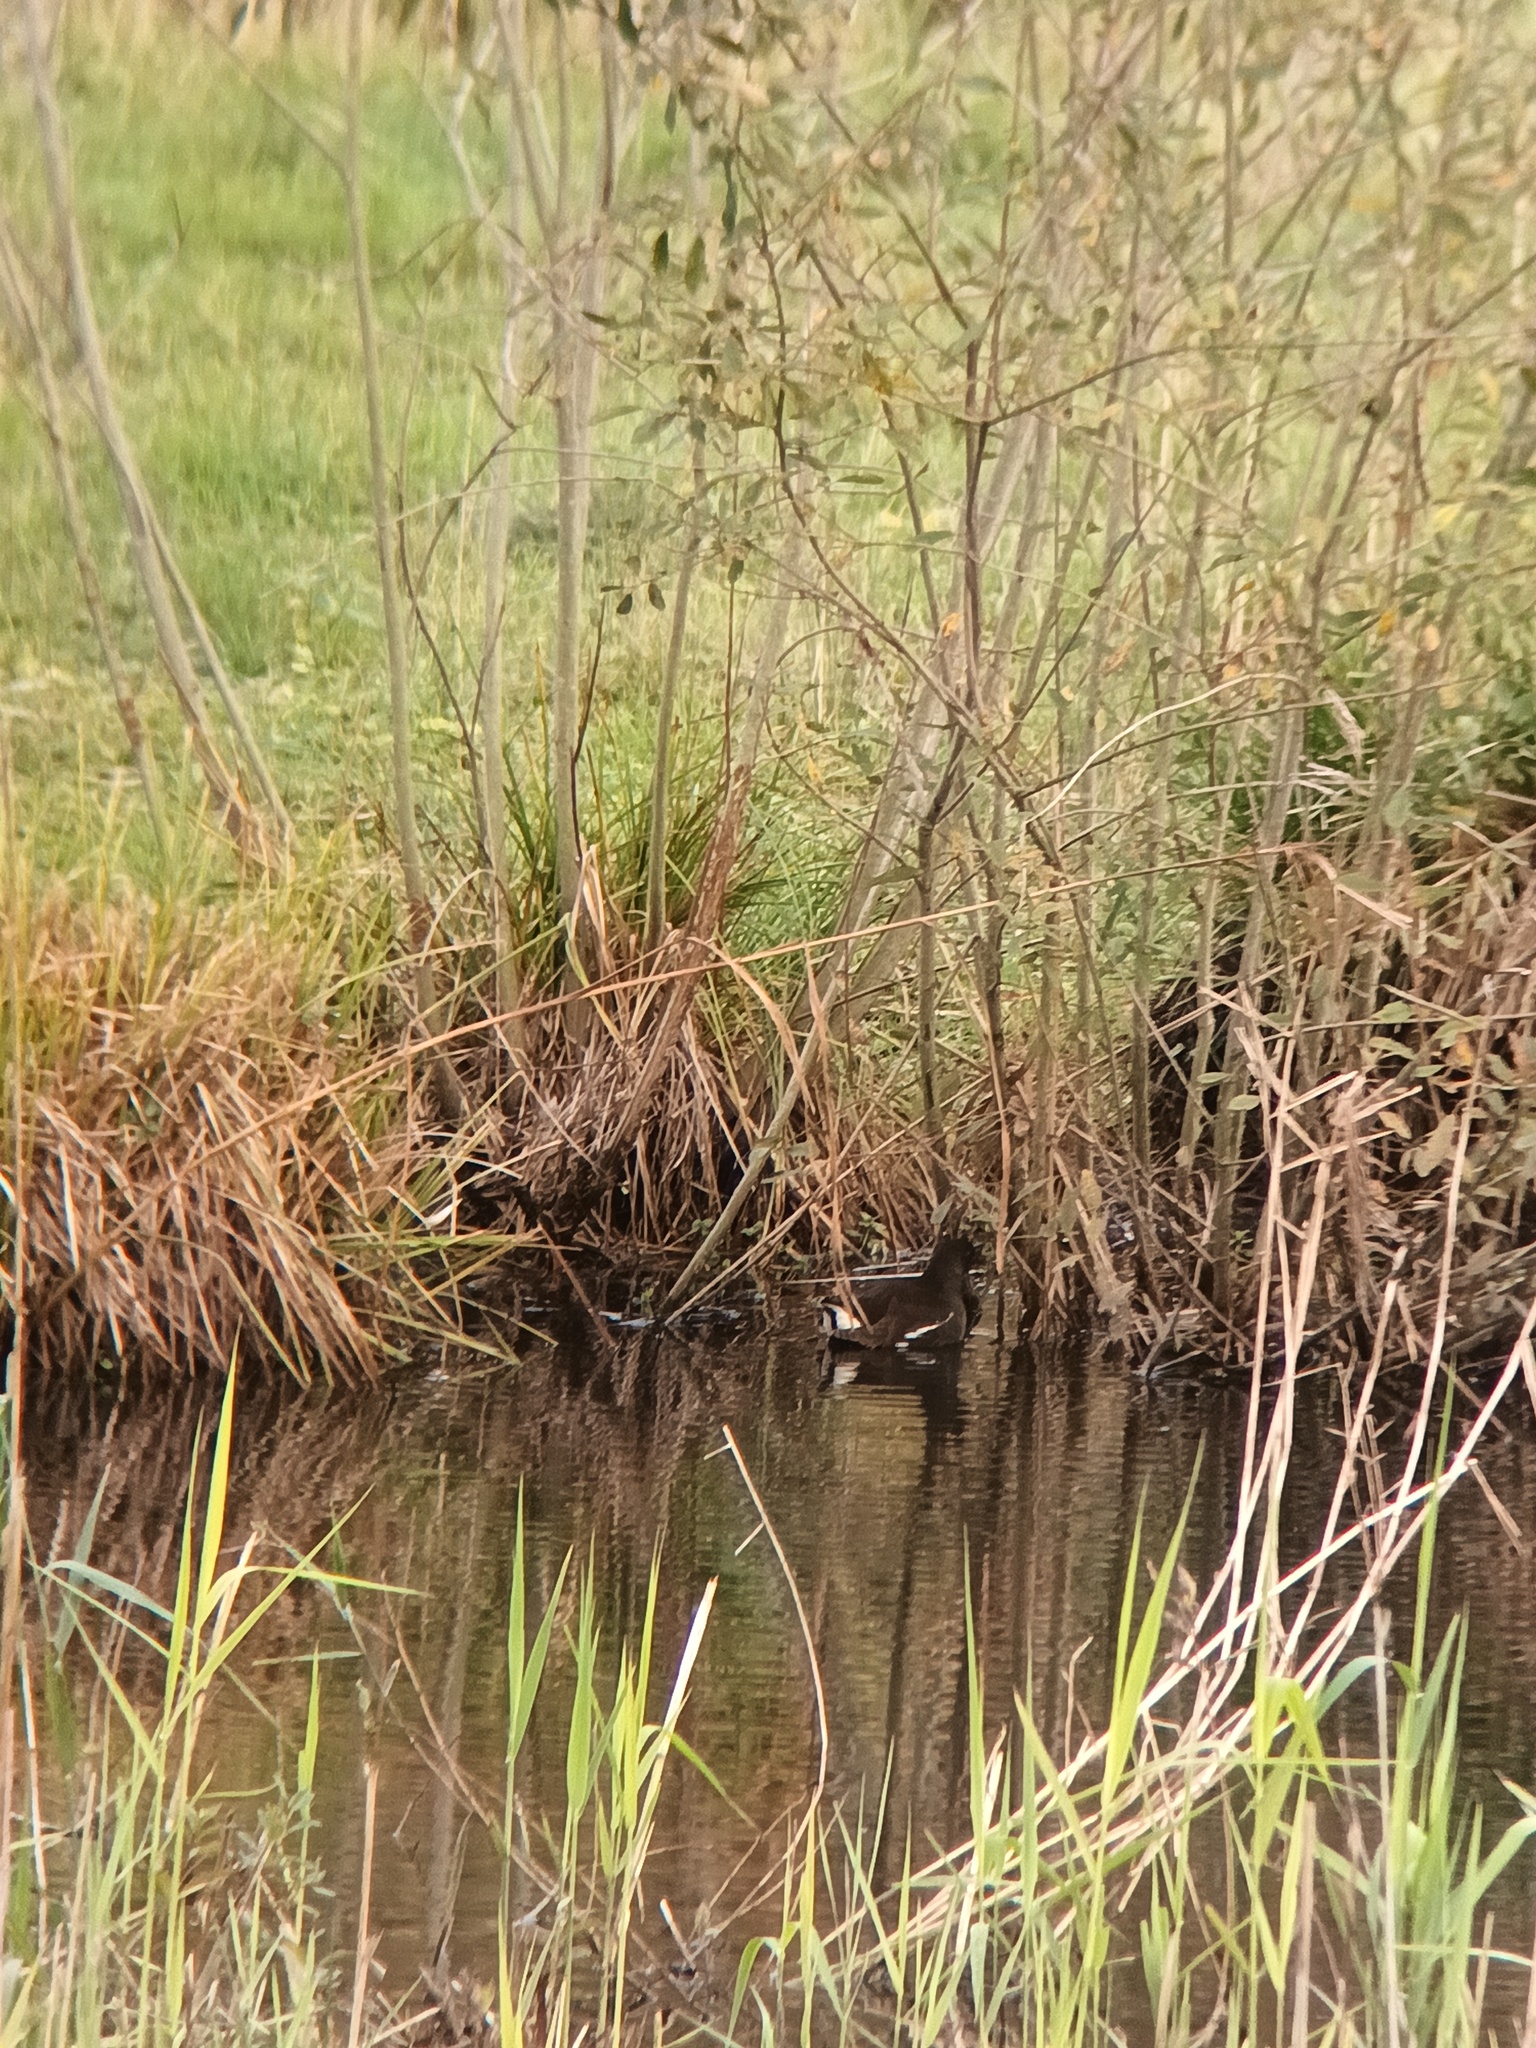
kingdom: Animalia
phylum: Chordata
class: Aves
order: Gruiformes
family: Rallidae
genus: Gallinula
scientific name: Gallinula chloropus
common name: Common moorhen
